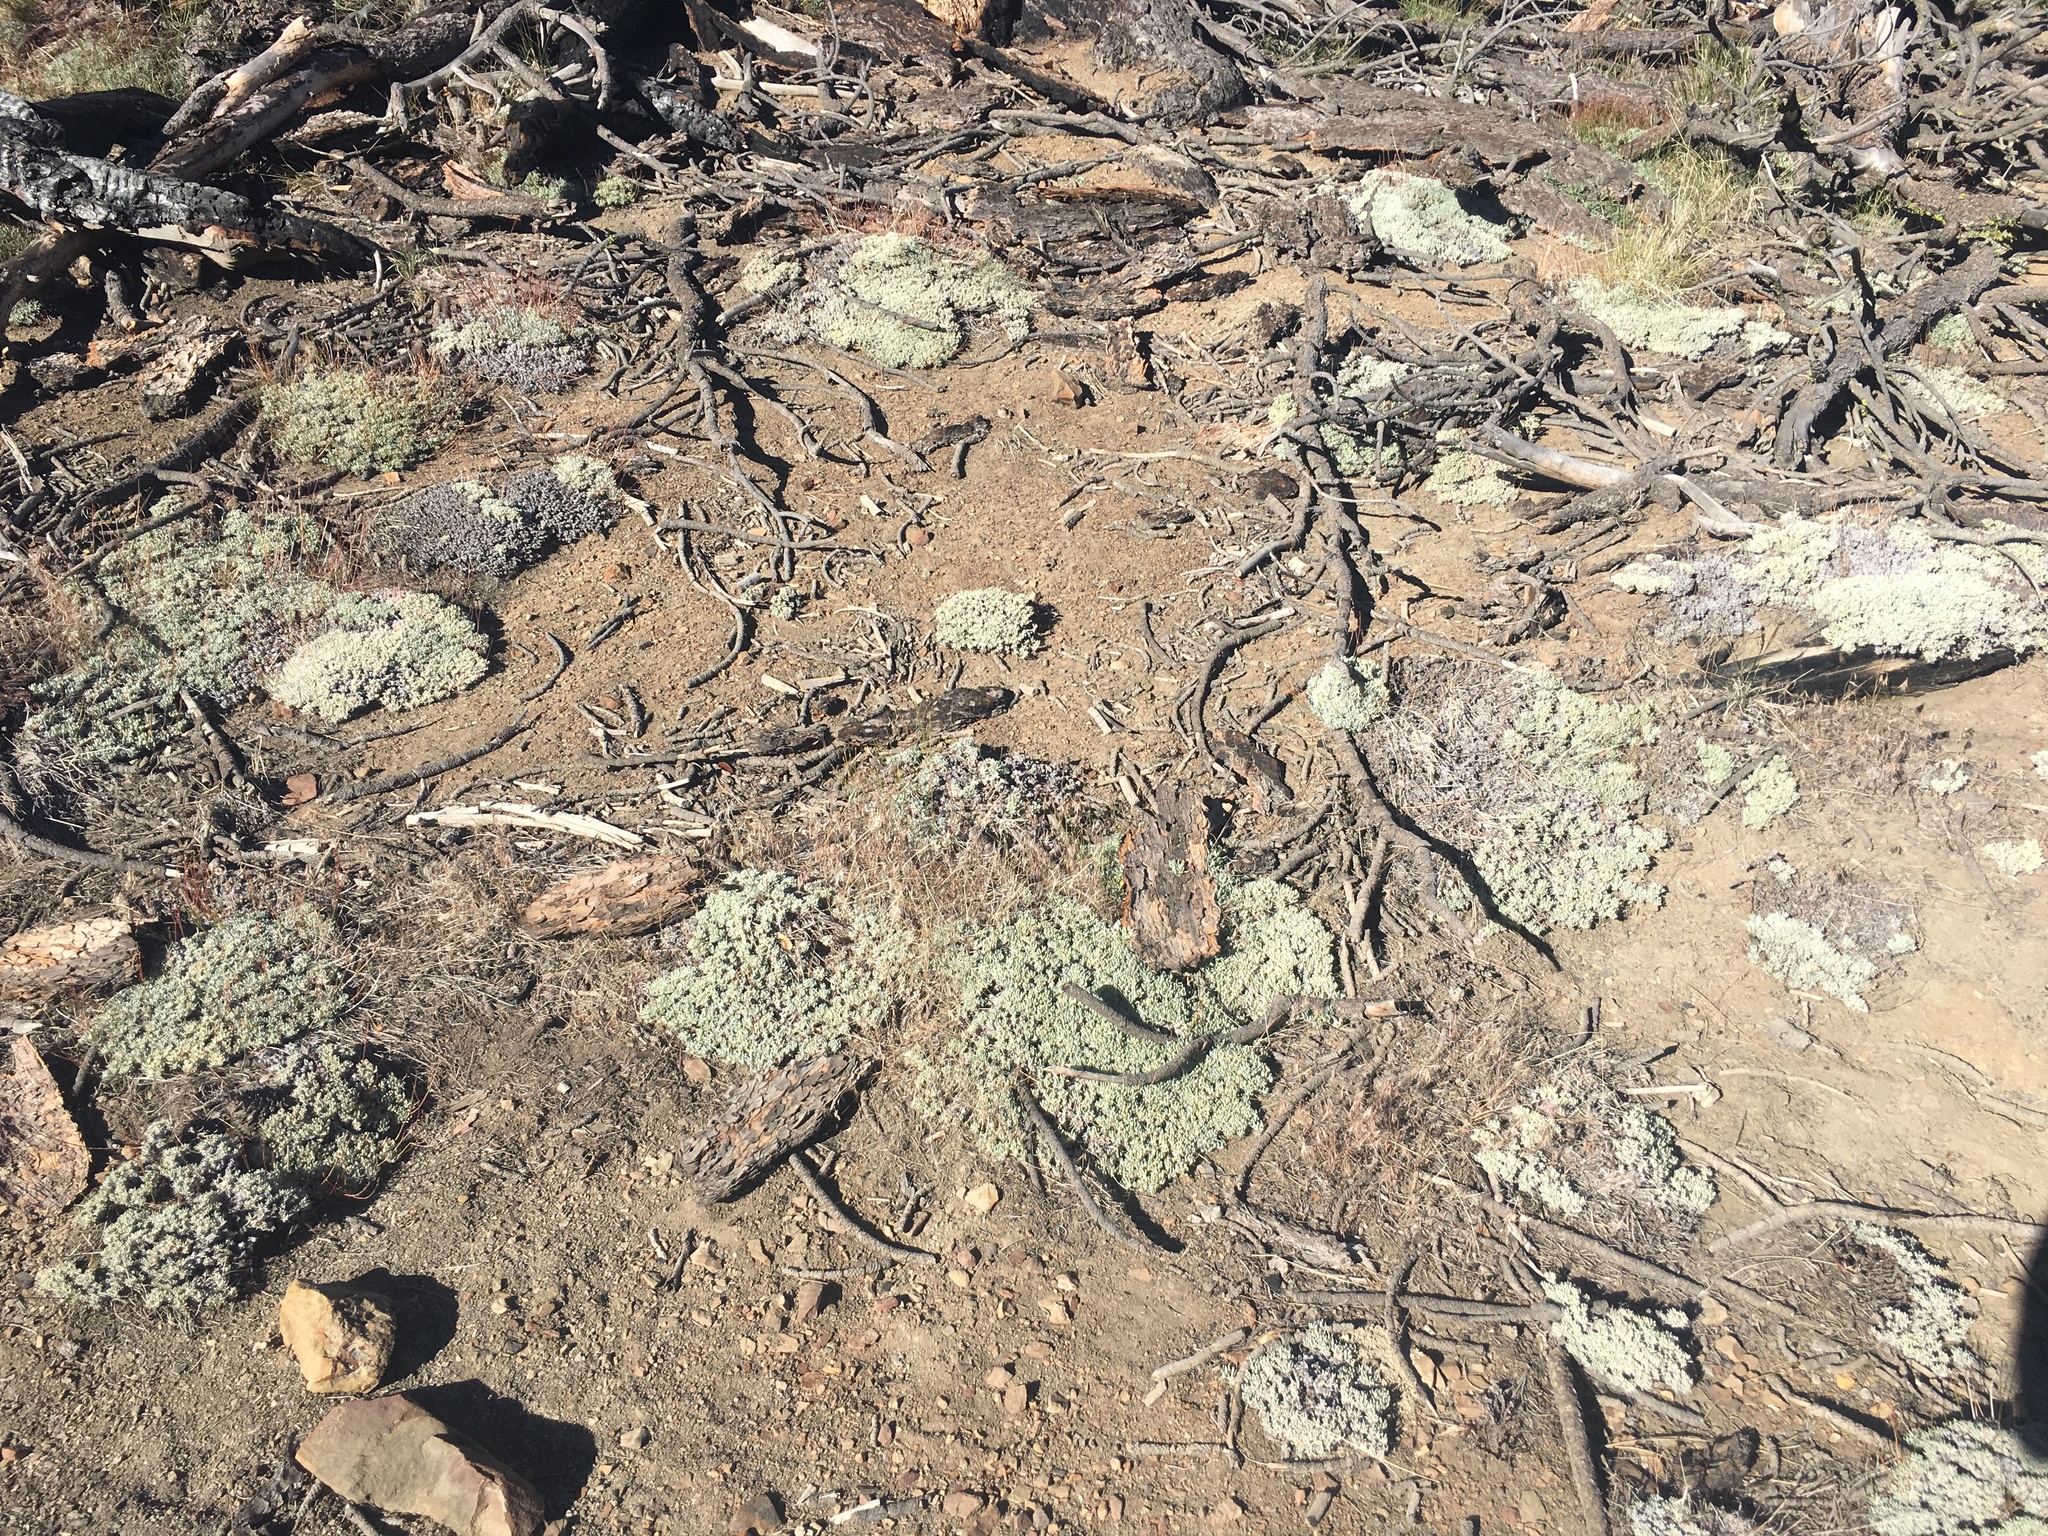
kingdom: Plantae
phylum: Tracheophyta
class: Magnoliopsida
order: Caryophyllales
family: Polygonaceae
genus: Eriogonum
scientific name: Eriogonum wrightii
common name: Bastard-sage
